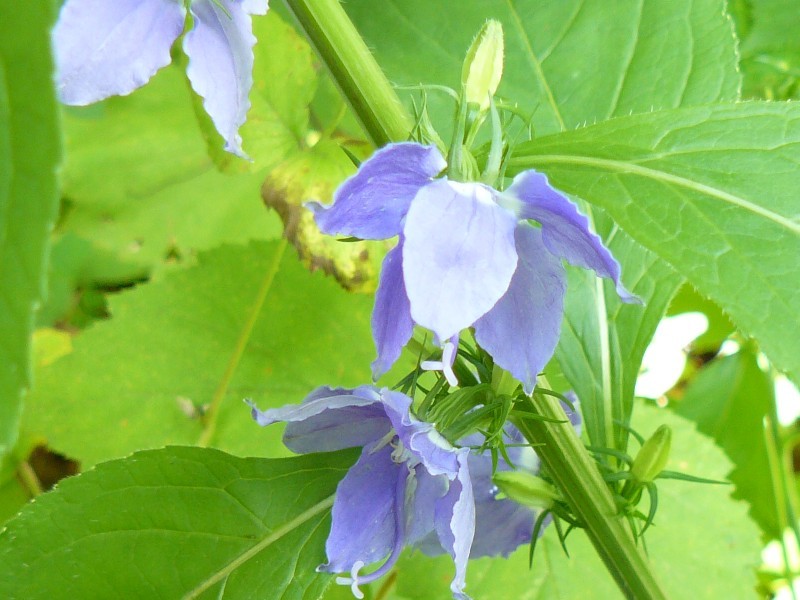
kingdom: Plantae
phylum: Tracheophyta
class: Magnoliopsida
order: Asterales
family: Campanulaceae
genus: Campanulastrum
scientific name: Campanulastrum americanum
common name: American bellflower
